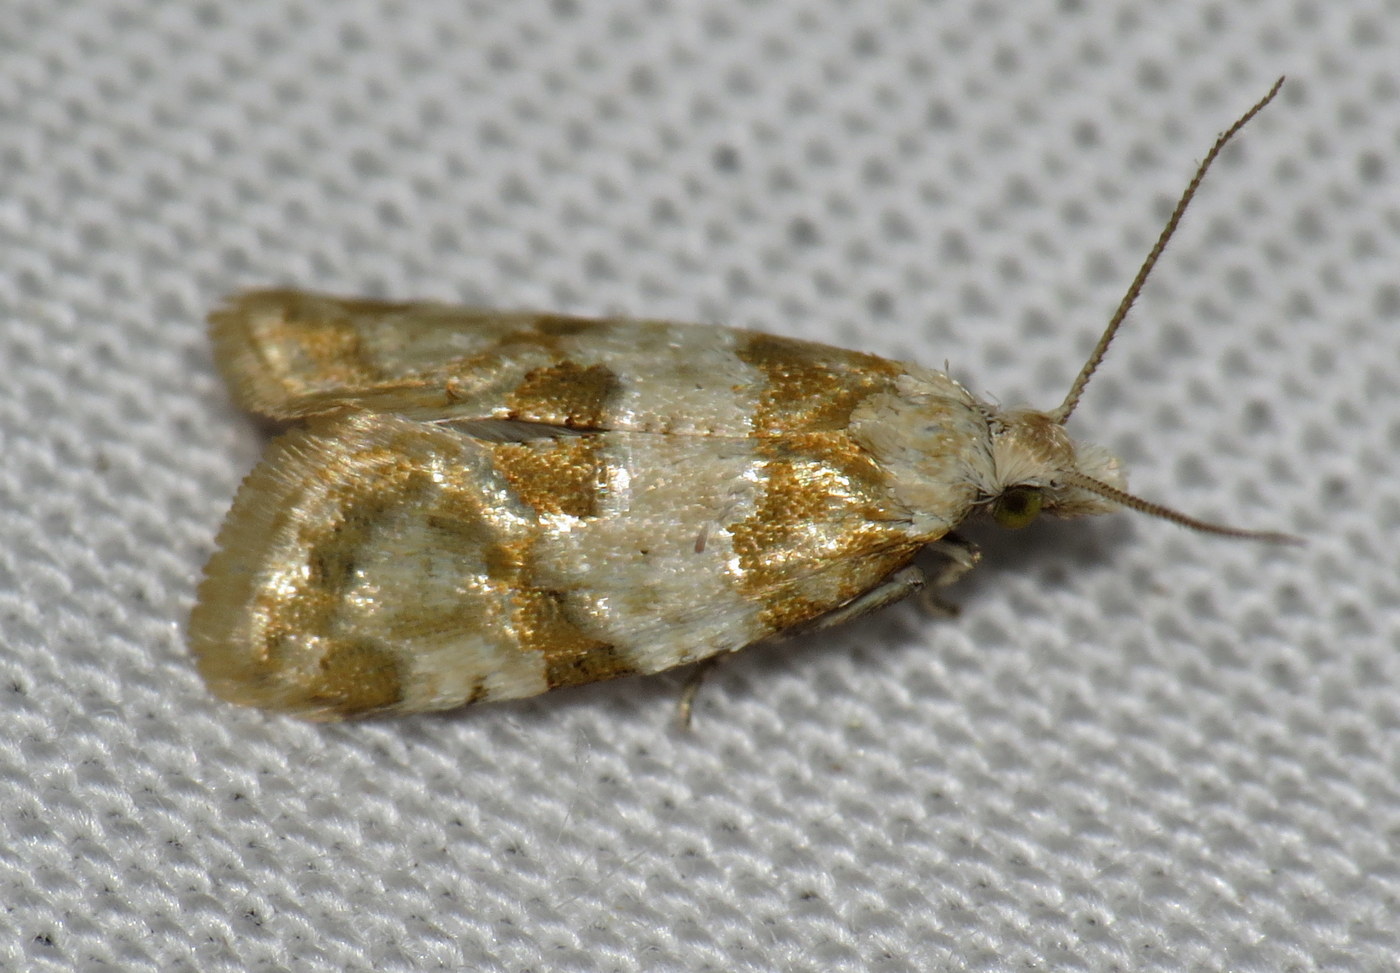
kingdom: Animalia
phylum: Arthropoda
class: Insecta
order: Lepidoptera
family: Tortricidae
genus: Aethes
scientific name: Aethes argentilimitana
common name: Silver-bordered aethes
